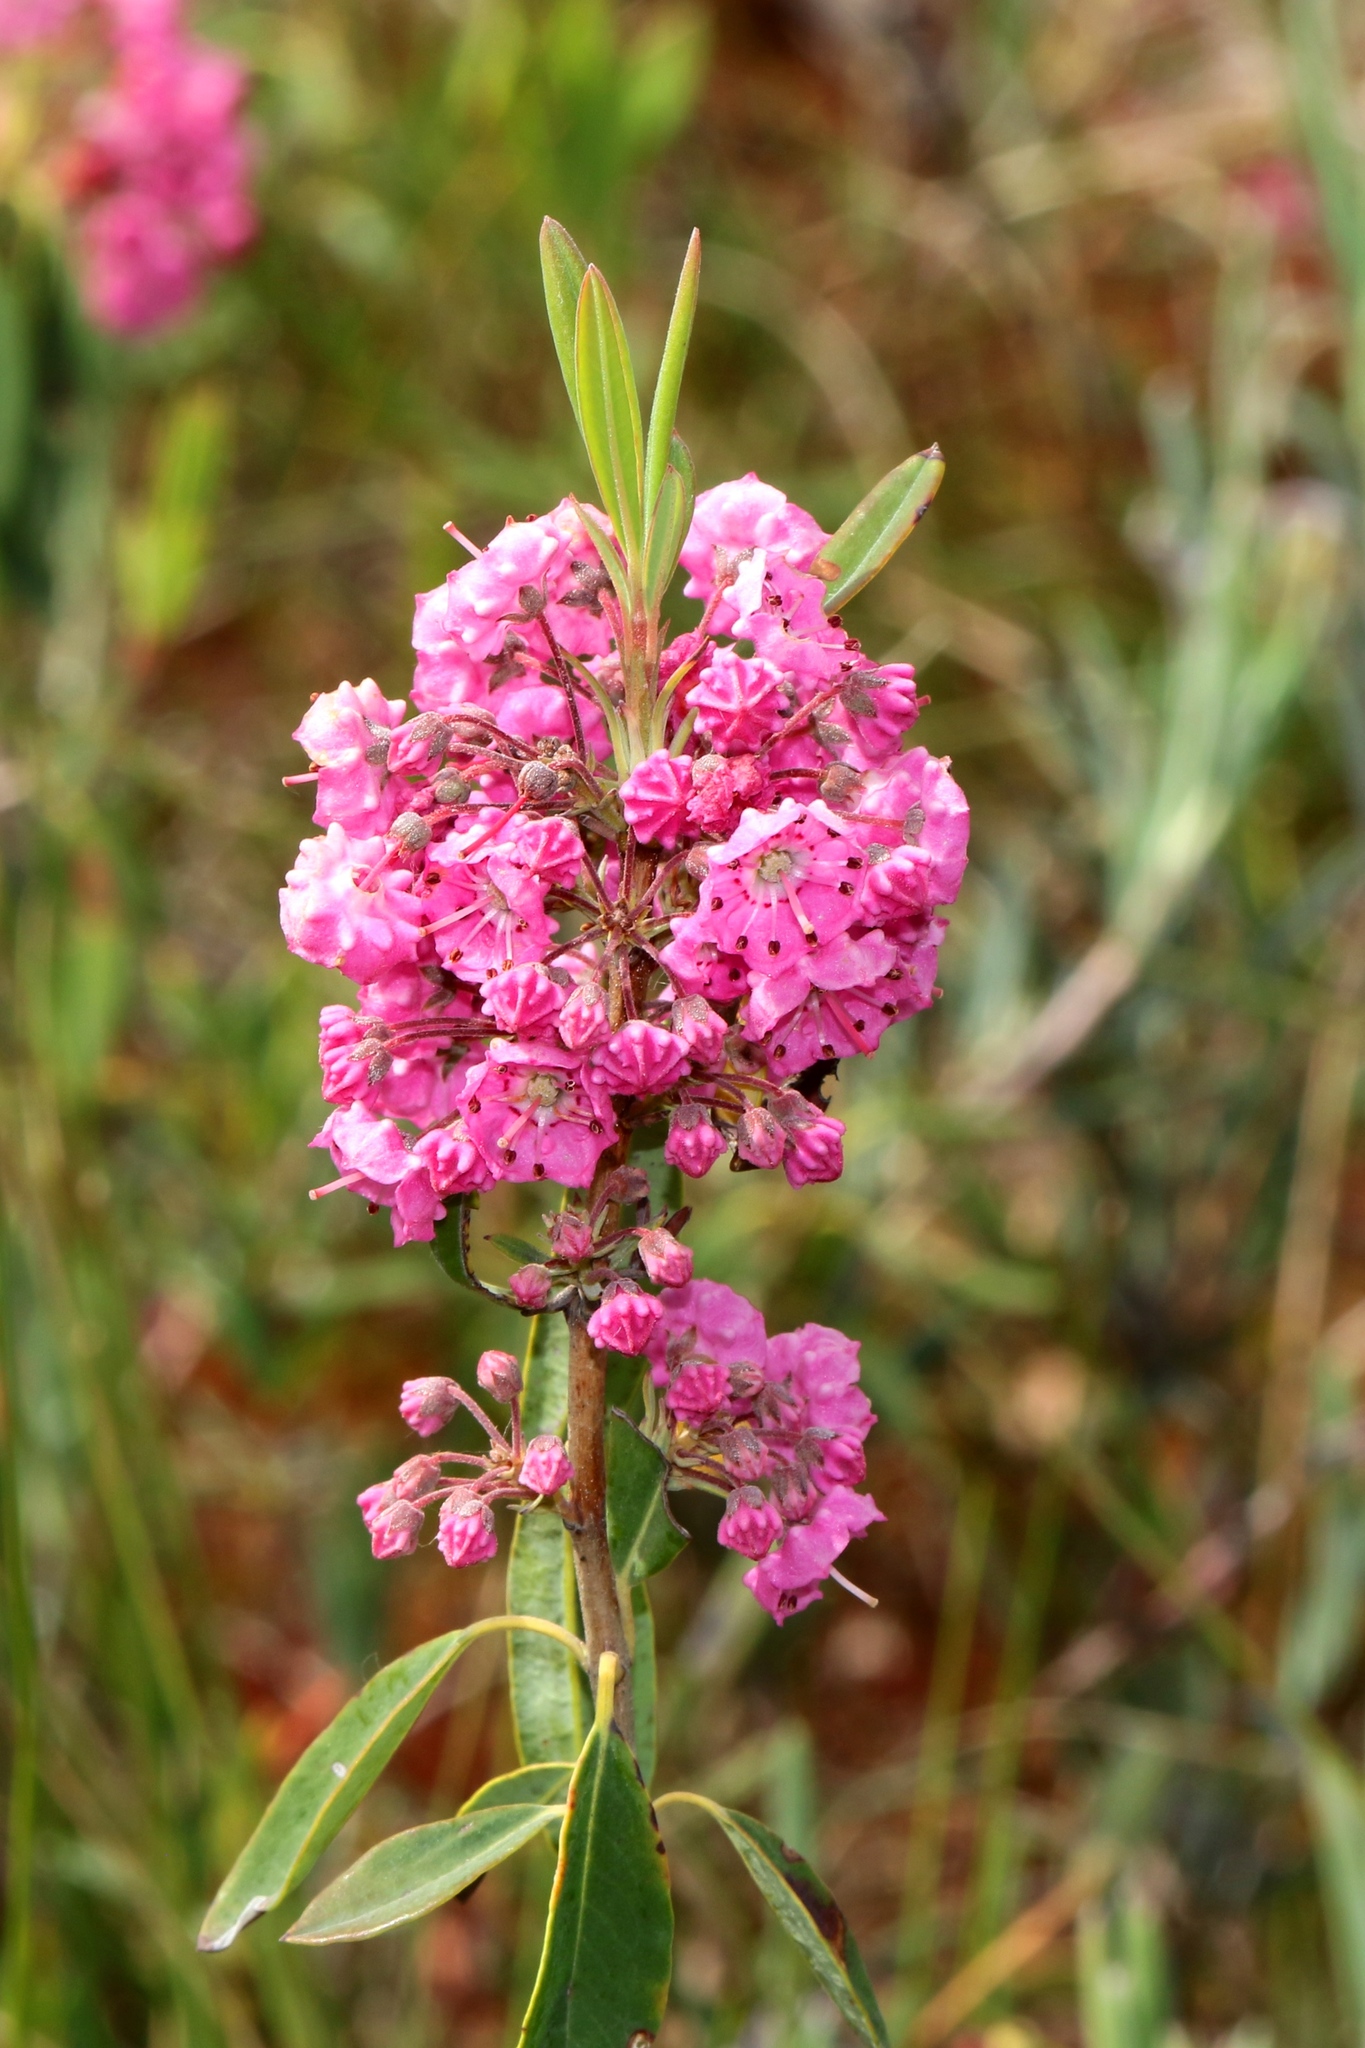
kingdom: Plantae
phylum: Tracheophyta
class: Magnoliopsida
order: Ericales
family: Ericaceae
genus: Kalmia
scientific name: Kalmia angustifolia
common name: Sheep-laurel
